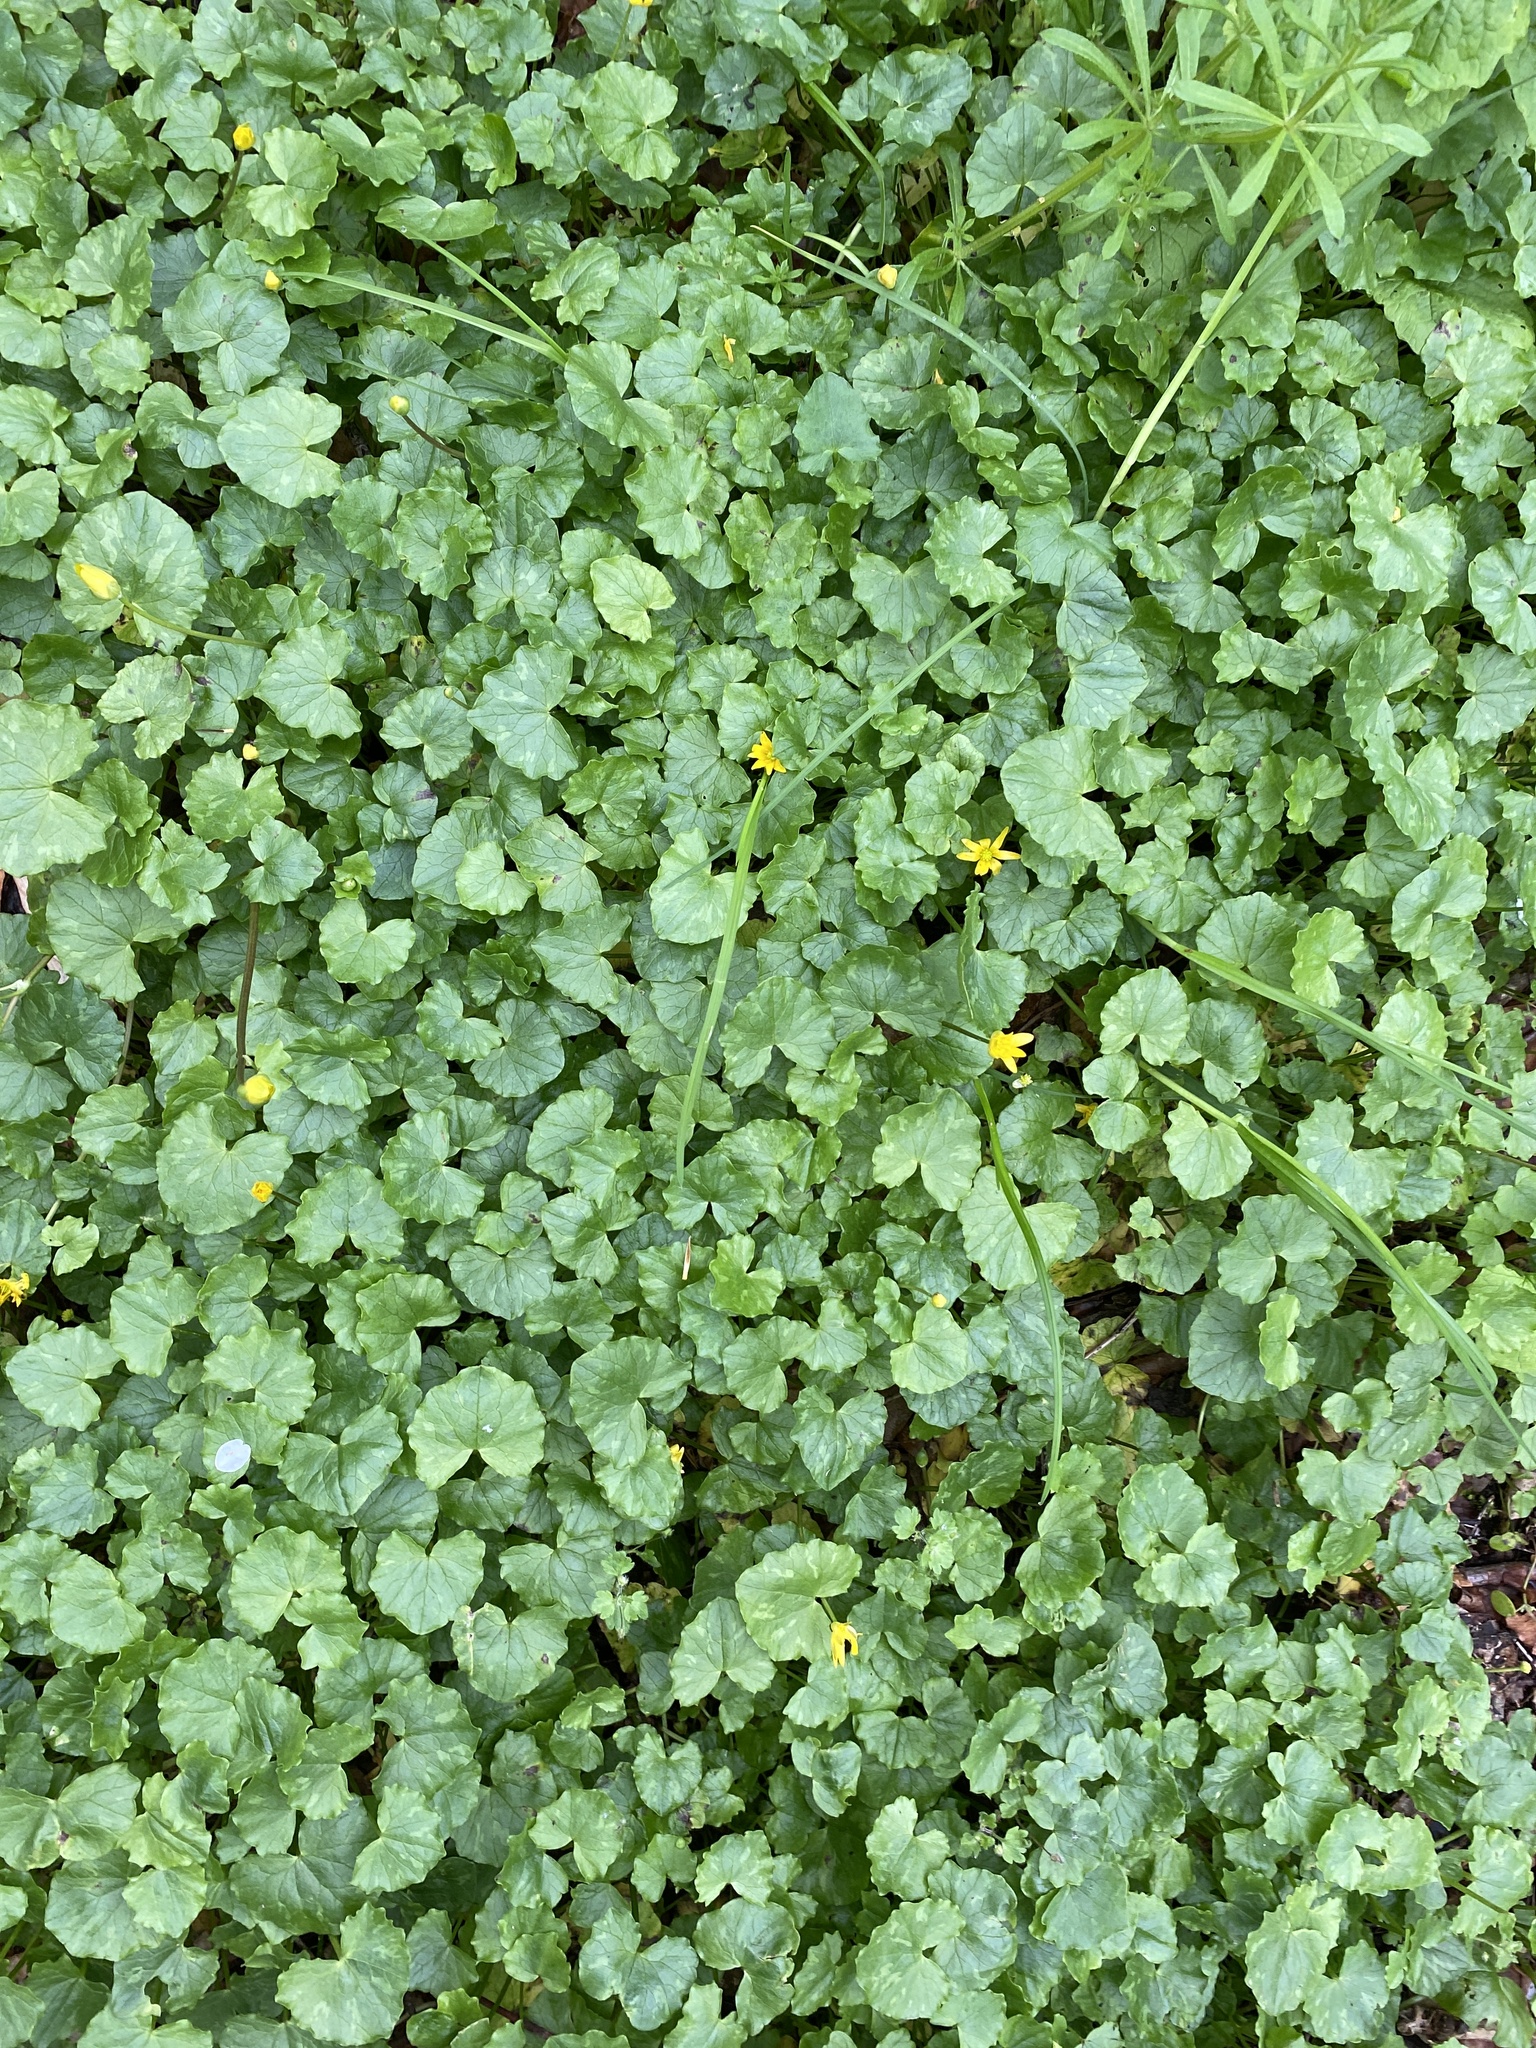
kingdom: Plantae
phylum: Tracheophyta
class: Magnoliopsida
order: Ranunculales
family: Ranunculaceae
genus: Ficaria
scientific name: Ficaria verna
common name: Lesser celandine
